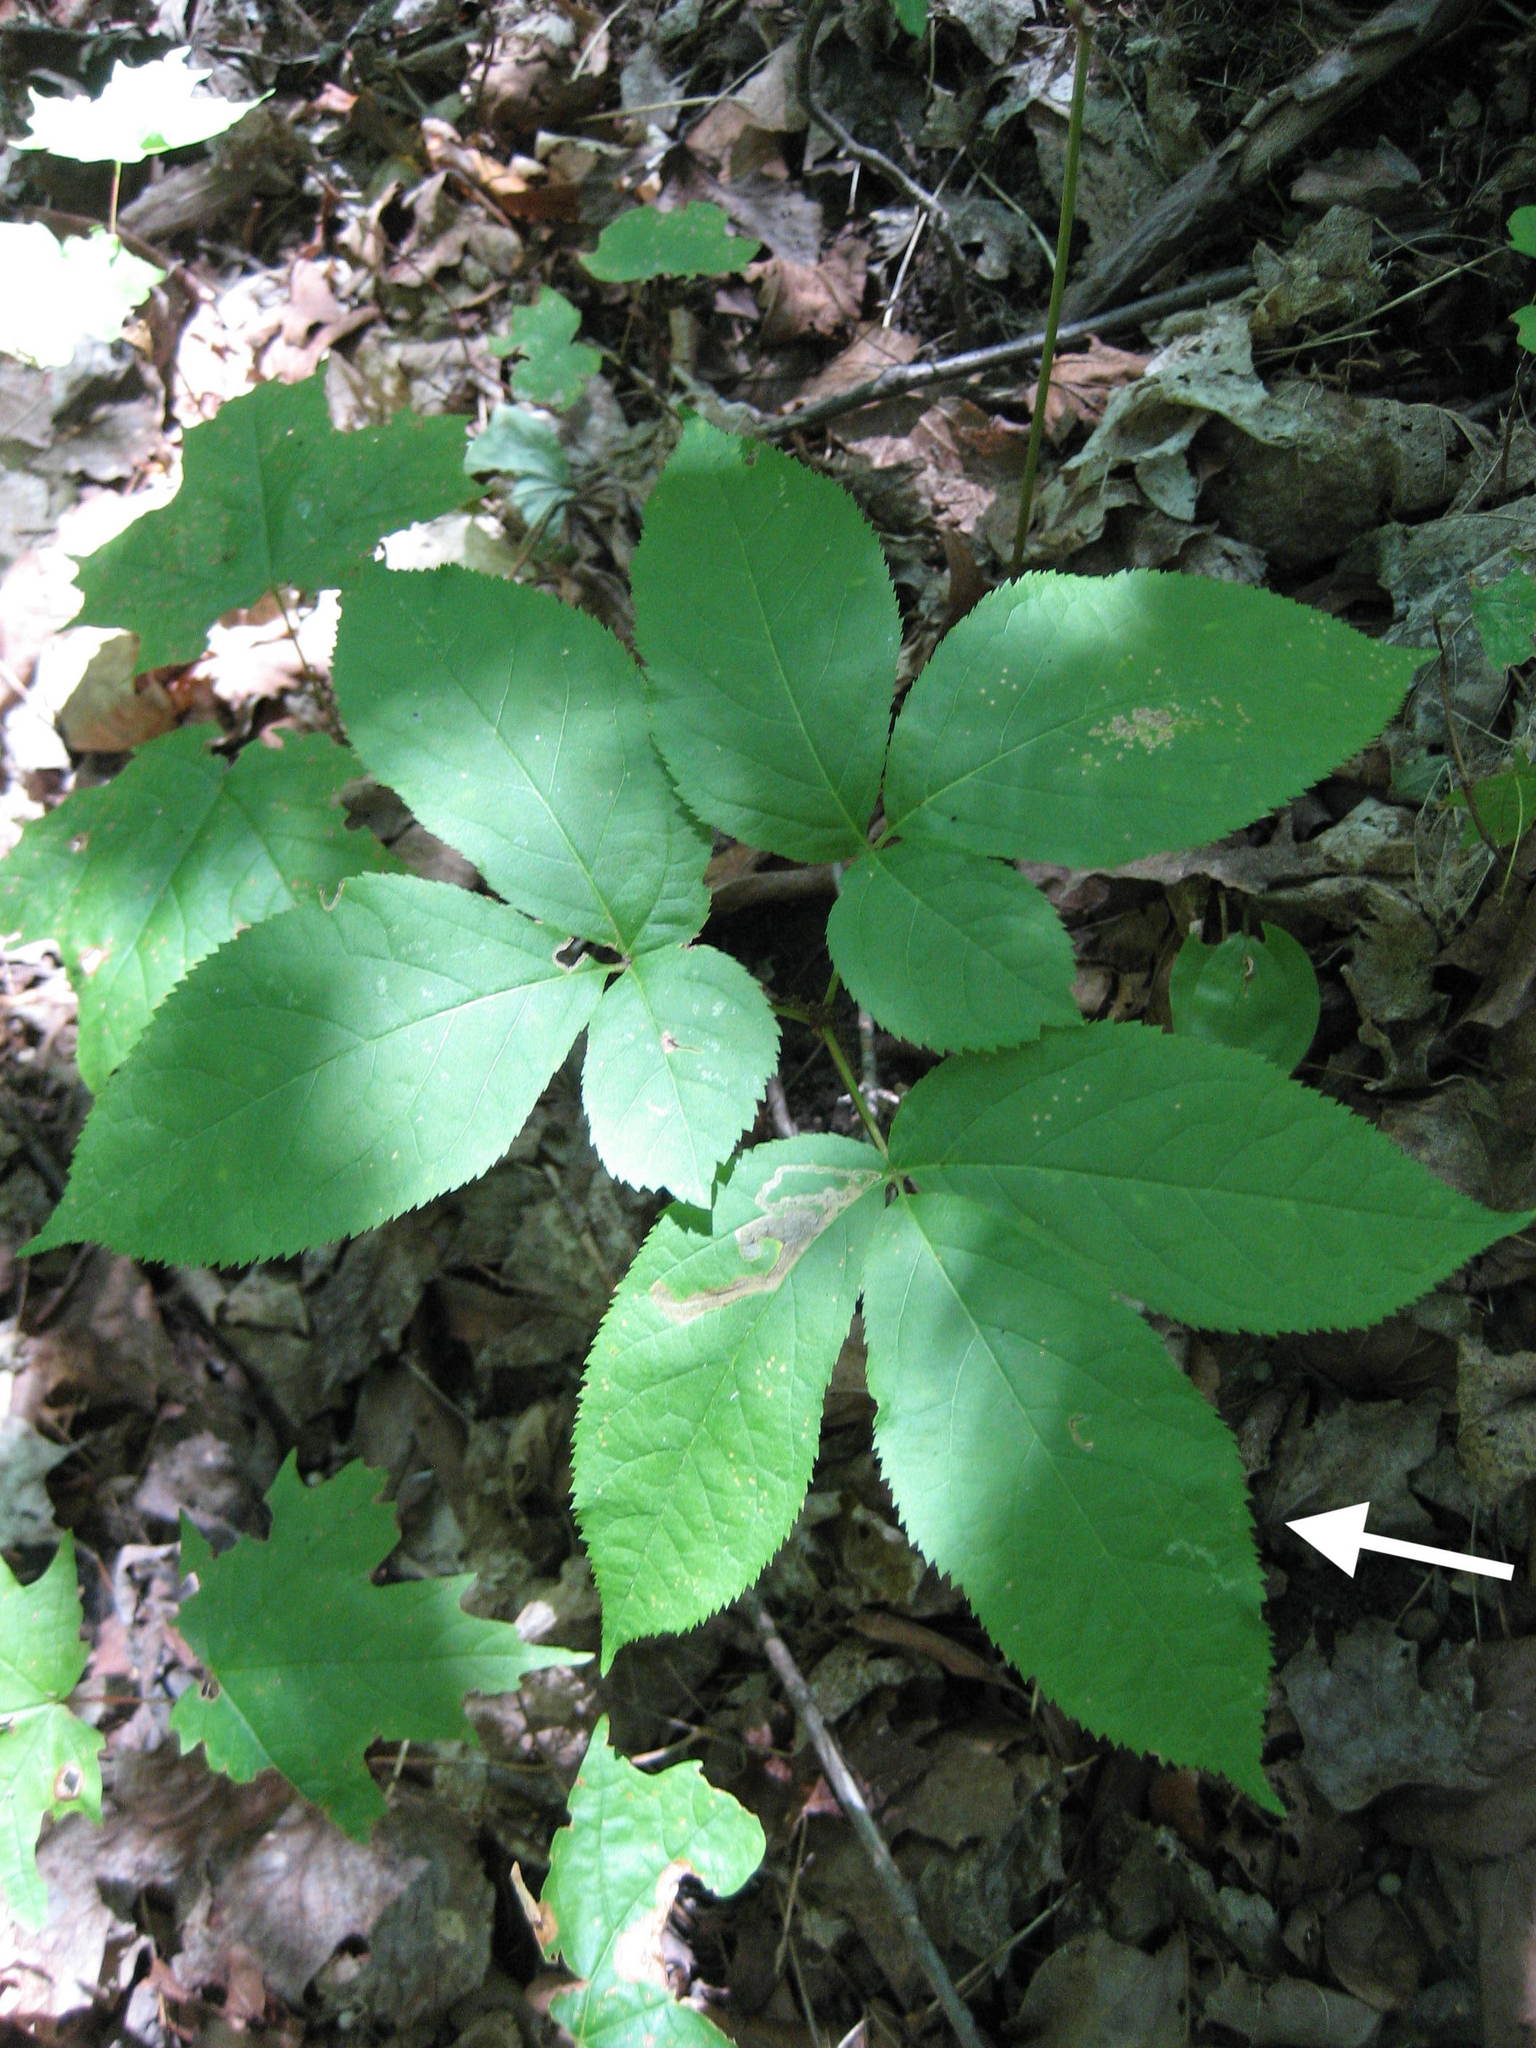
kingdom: Plantae
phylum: Tracheophyta
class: Magnoliopsida
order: Apiales
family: Araliaceae
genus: Aralia
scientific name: Aralia nudicaulis
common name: Wild sarsaparilla
